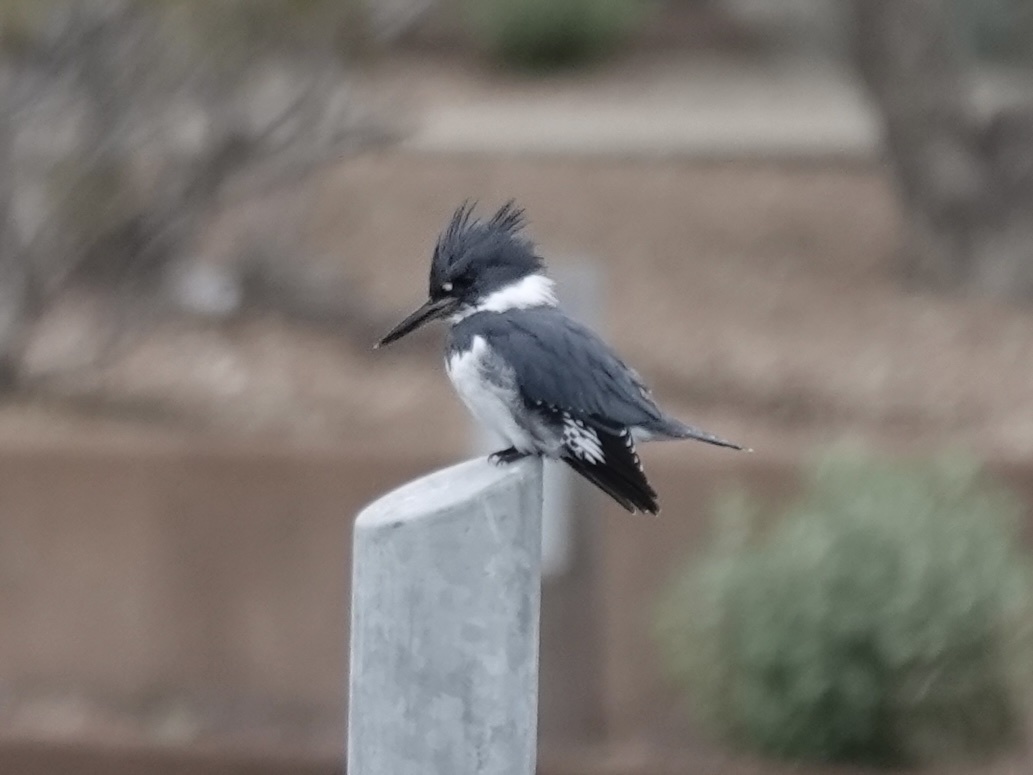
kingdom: Animalia
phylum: Chordata
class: Aves
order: Coraciiformes
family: Alcedinidae
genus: Megaceryle
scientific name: Megaceryle alcyon
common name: Belted kingfisher
